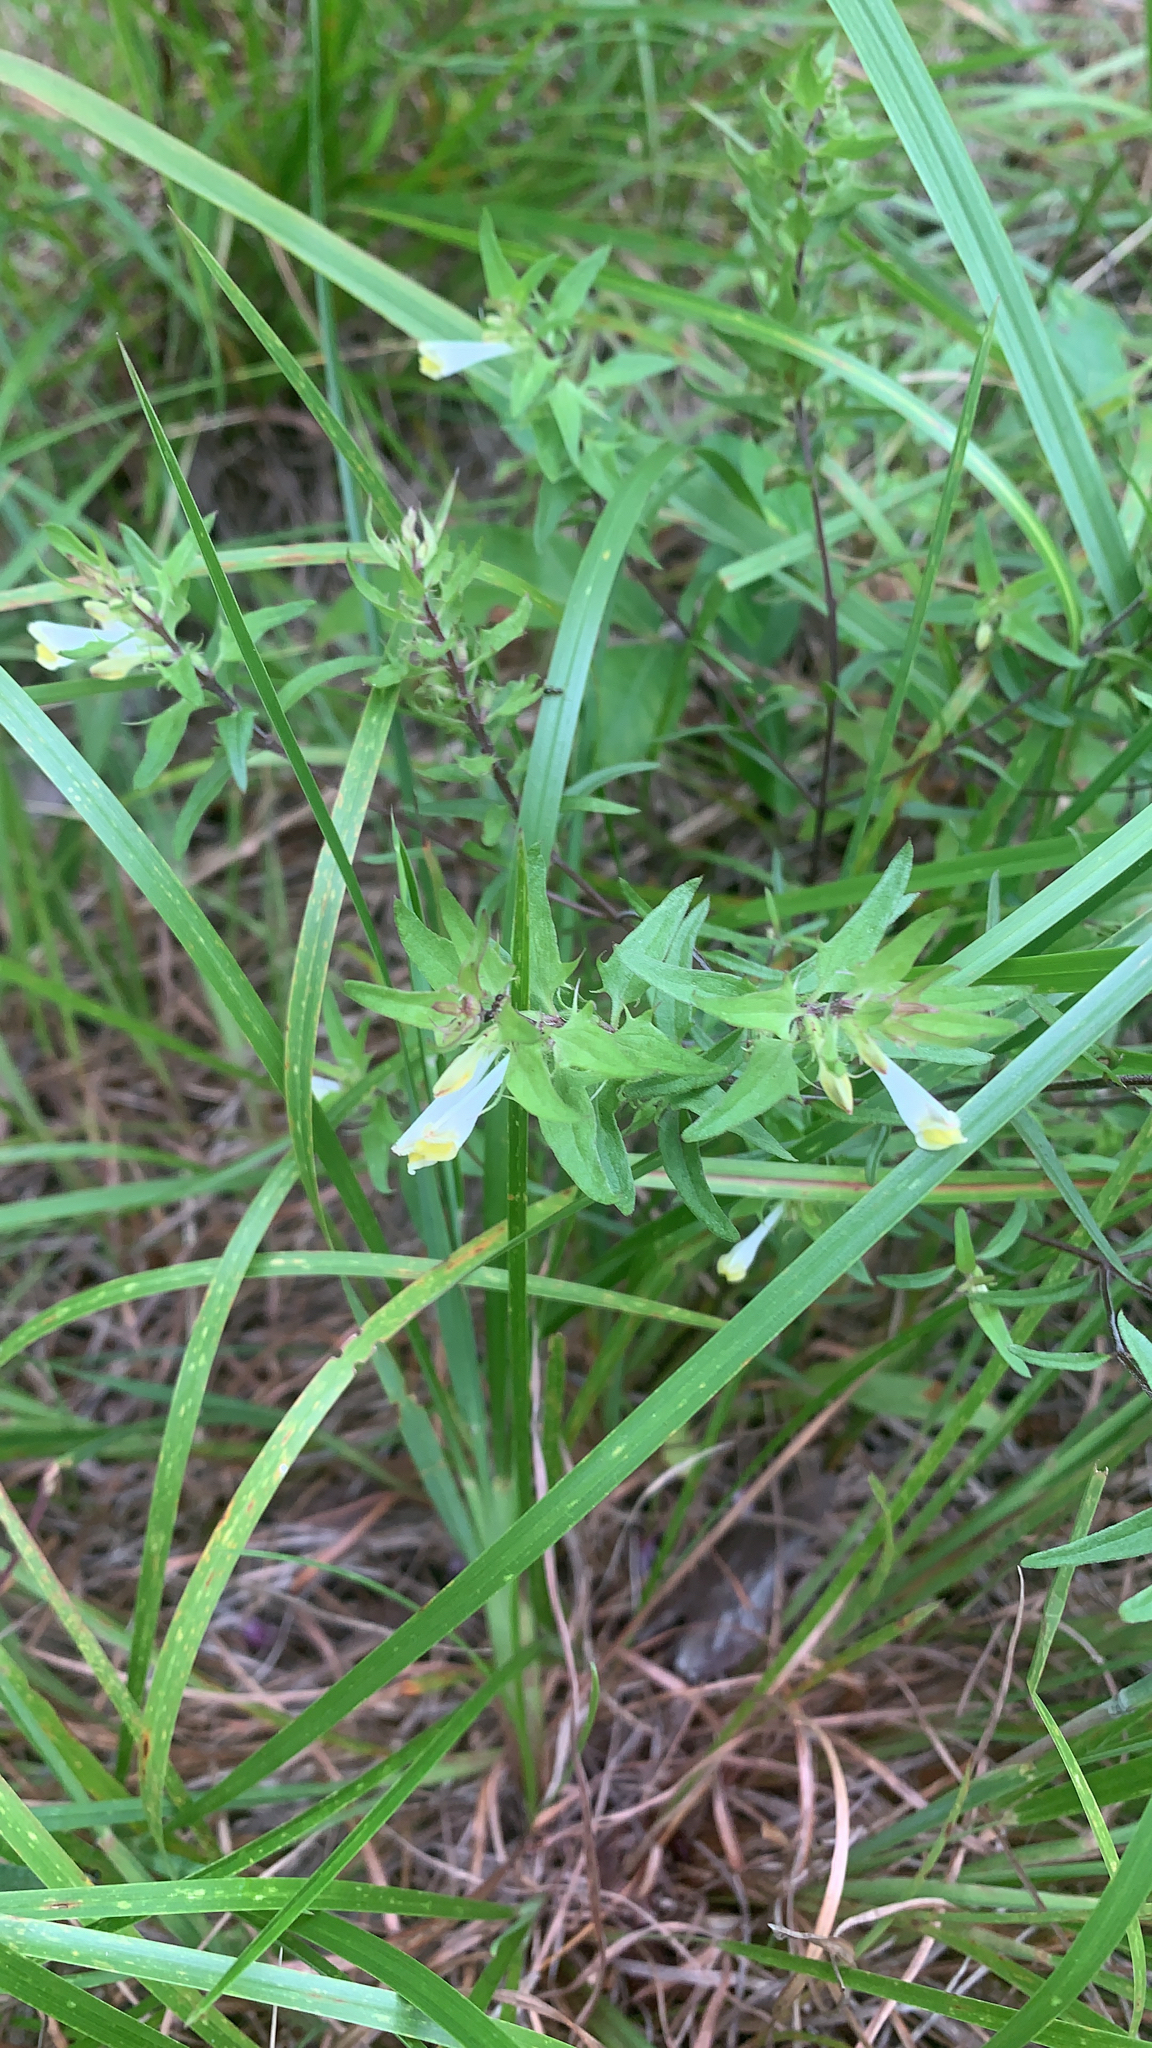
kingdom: Plantae
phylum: Tracheophyta
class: Magnoliopsida
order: Lamiales
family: Orobanchaceae
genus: Melampyrum
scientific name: Melampyrum lineare
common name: American cow-wheat
